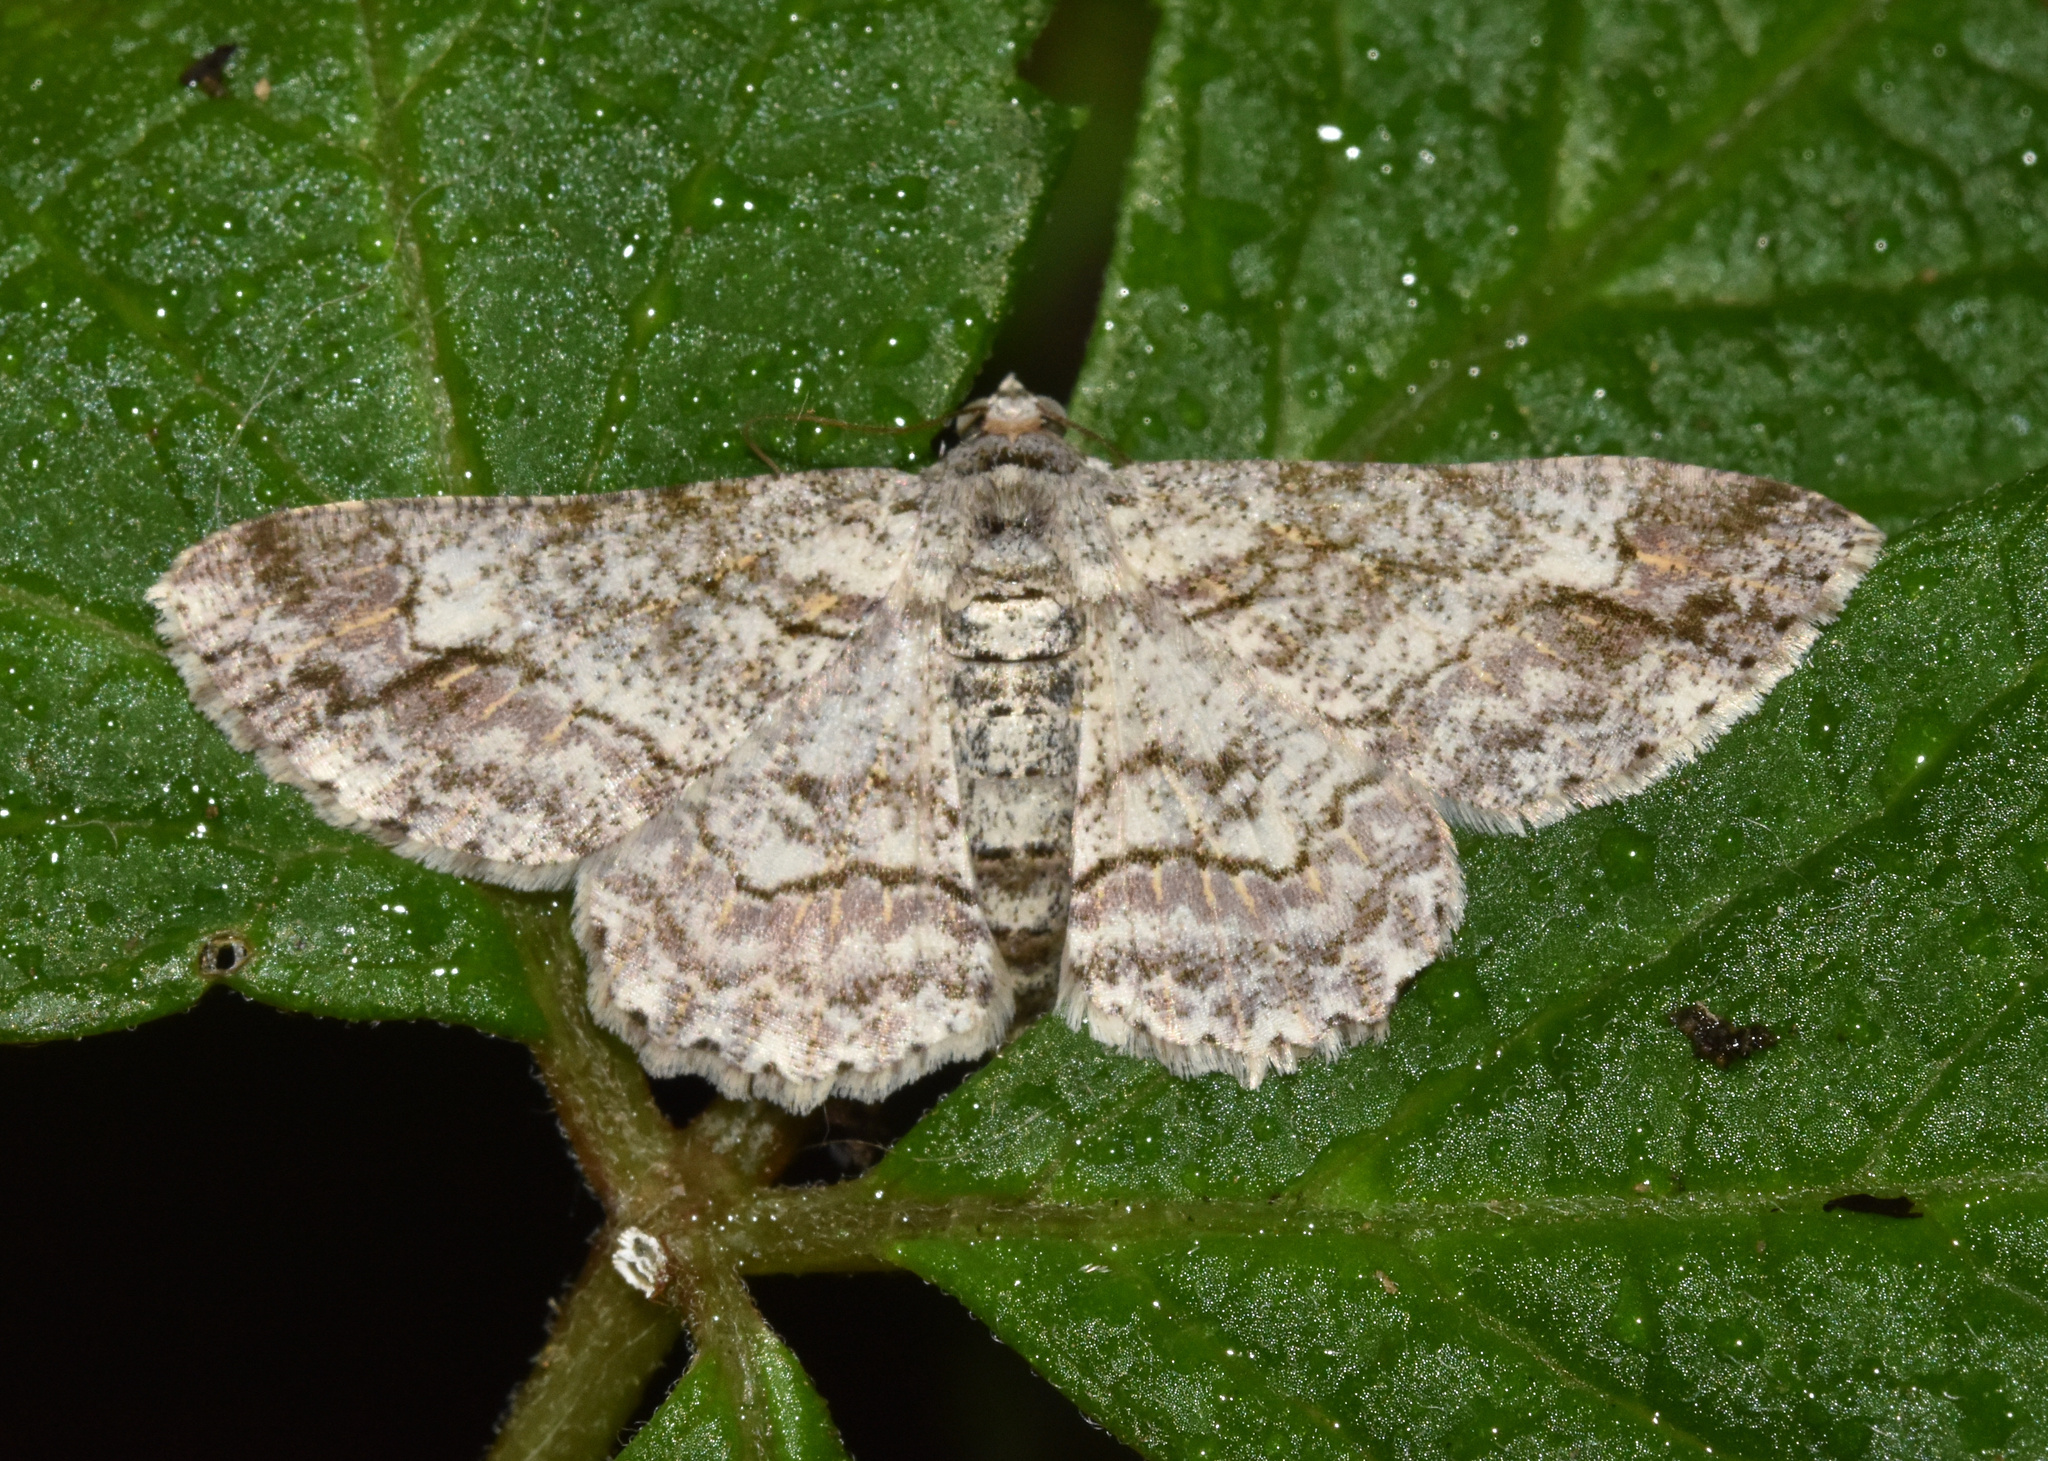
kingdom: Animalia
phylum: Arthropoda
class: Insecta
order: Lepidoptera
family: Geometridae
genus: Cleora
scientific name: Cleora tulbaghata
